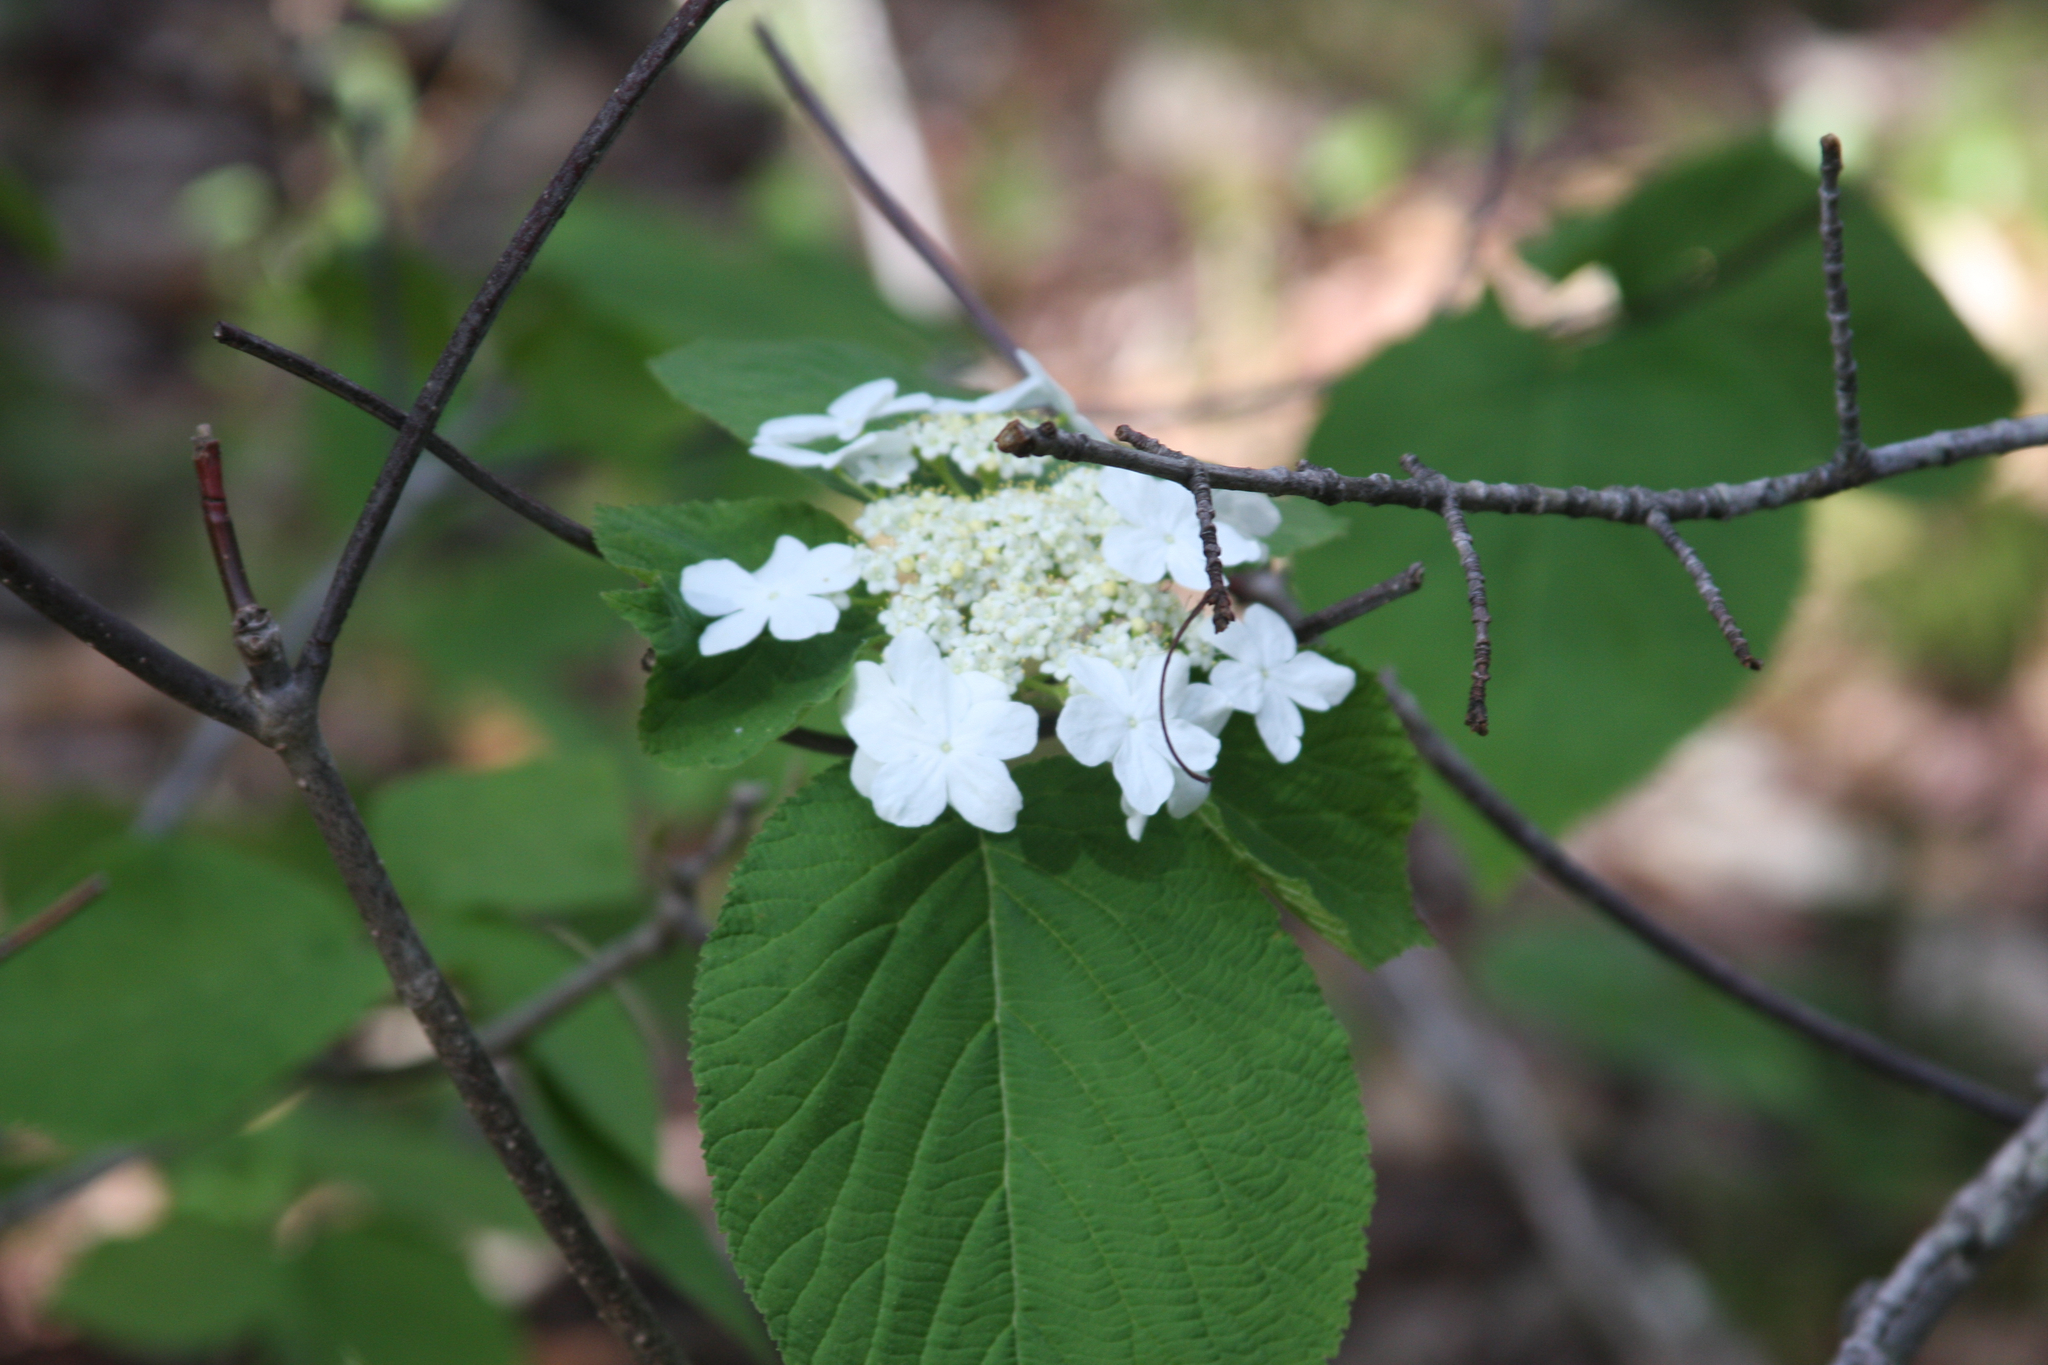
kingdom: Plantae
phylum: Tracheophyta
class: Magnoliopsida
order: Dipsacales
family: Viburnaceae
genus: Viburnum
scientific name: Viburnum lantanoides
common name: Hobblebush
